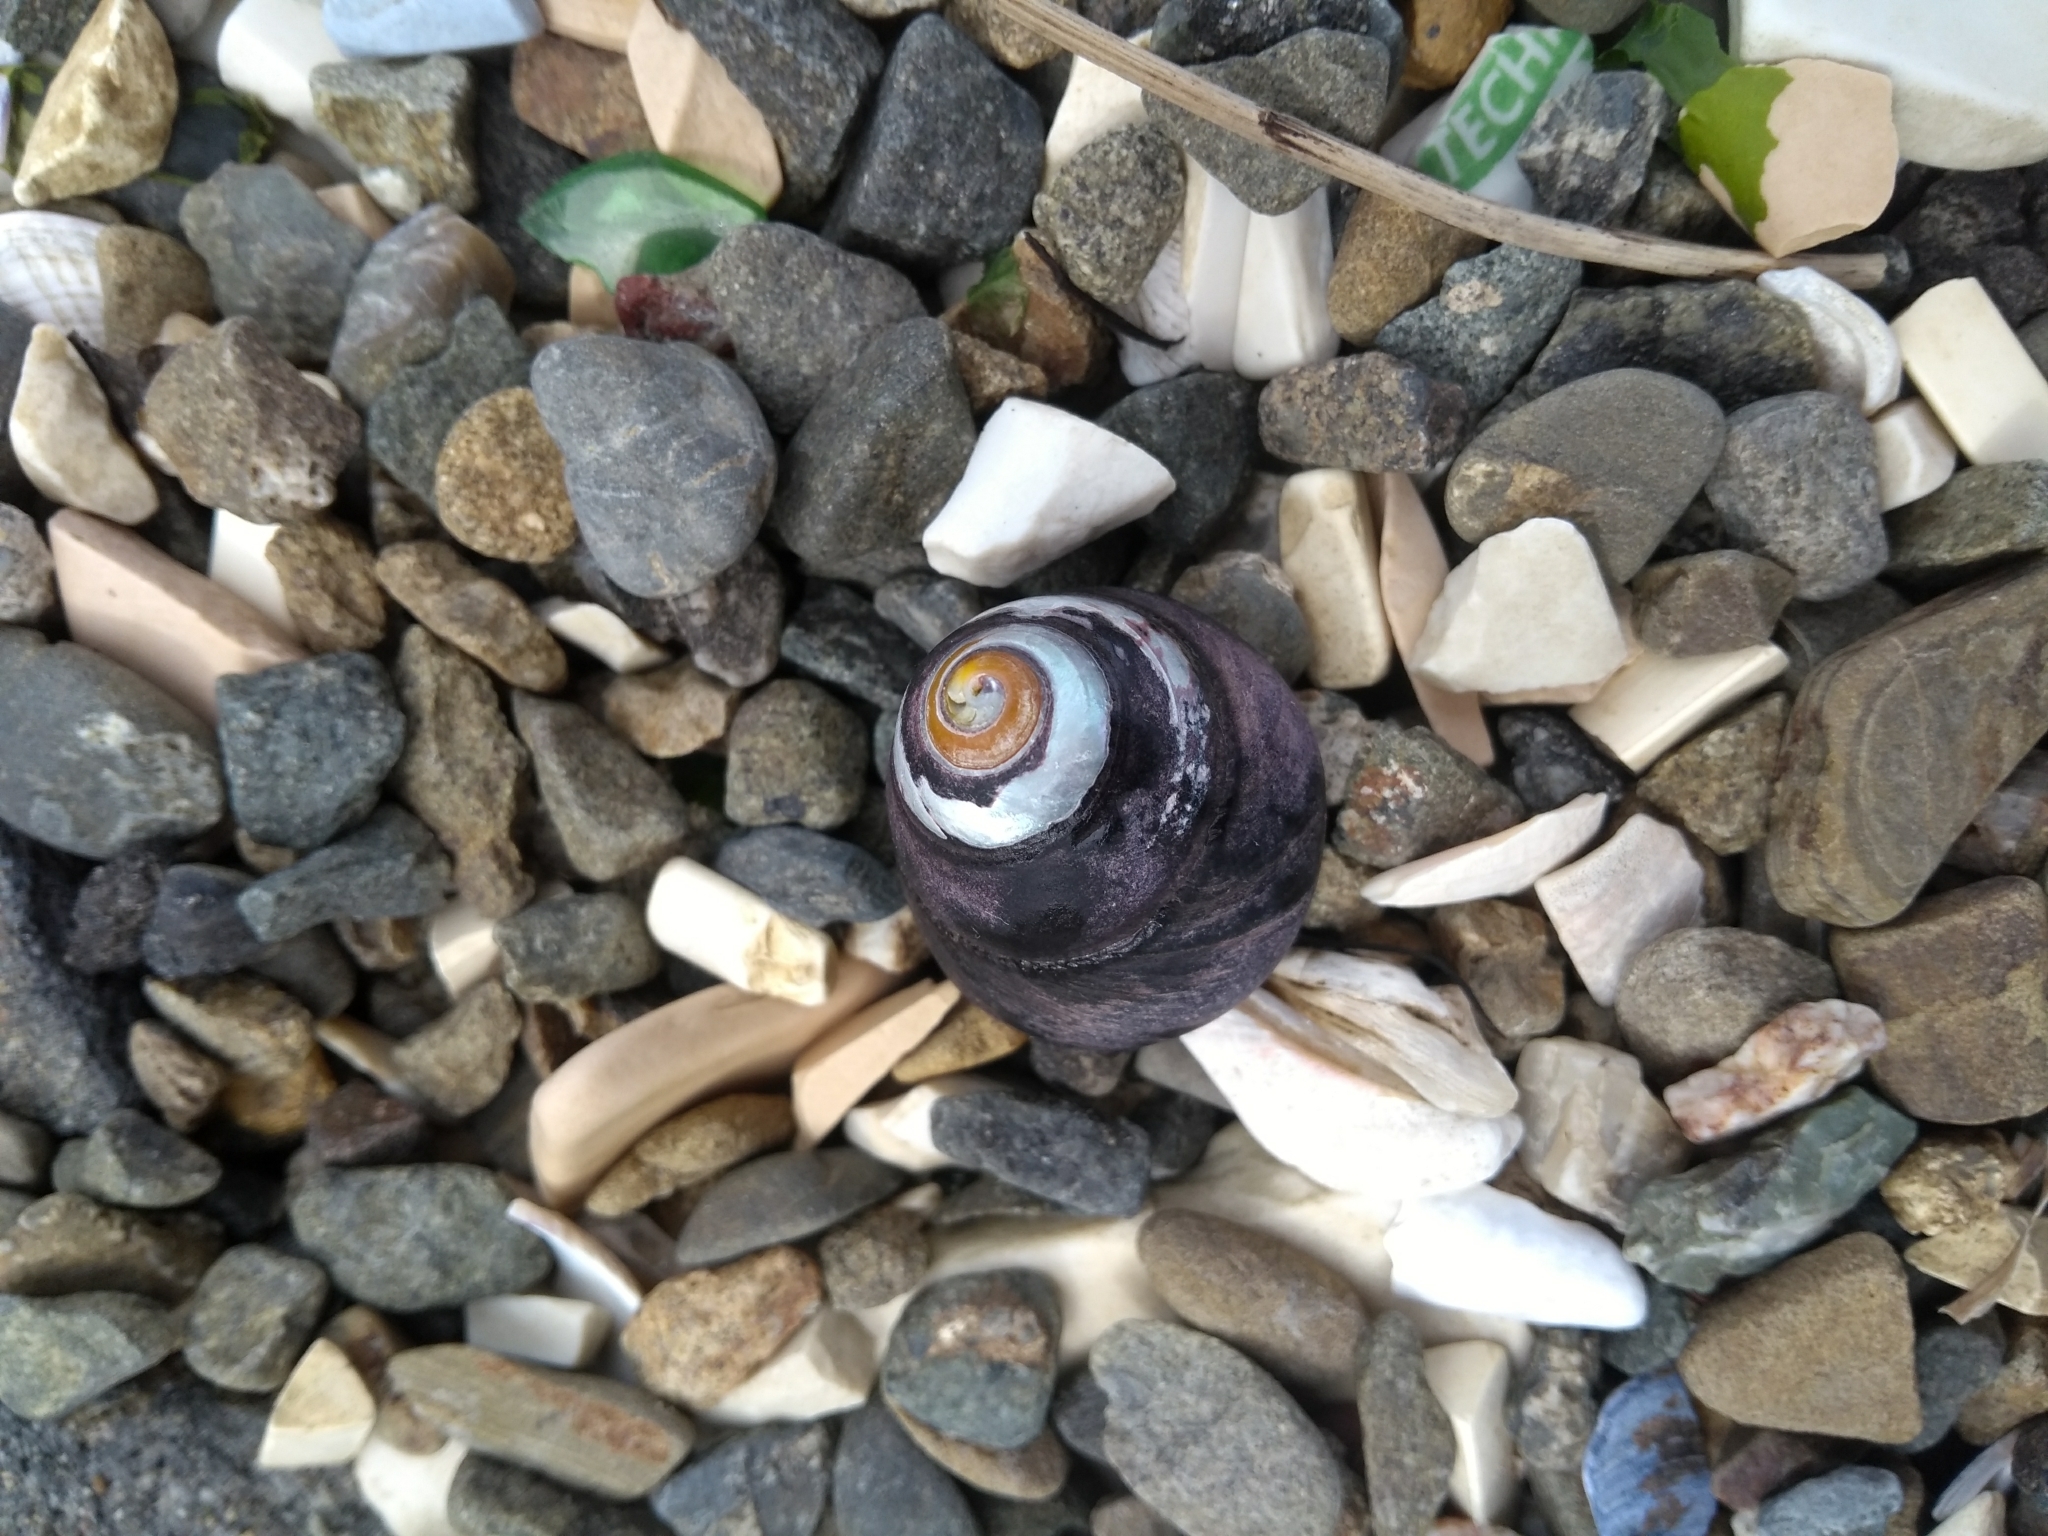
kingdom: Animalia
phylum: Mollusca
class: Gastropoda
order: Trochida
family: Tegulidae
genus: Tegula
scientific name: Tegula funebralis
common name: Black tegula
